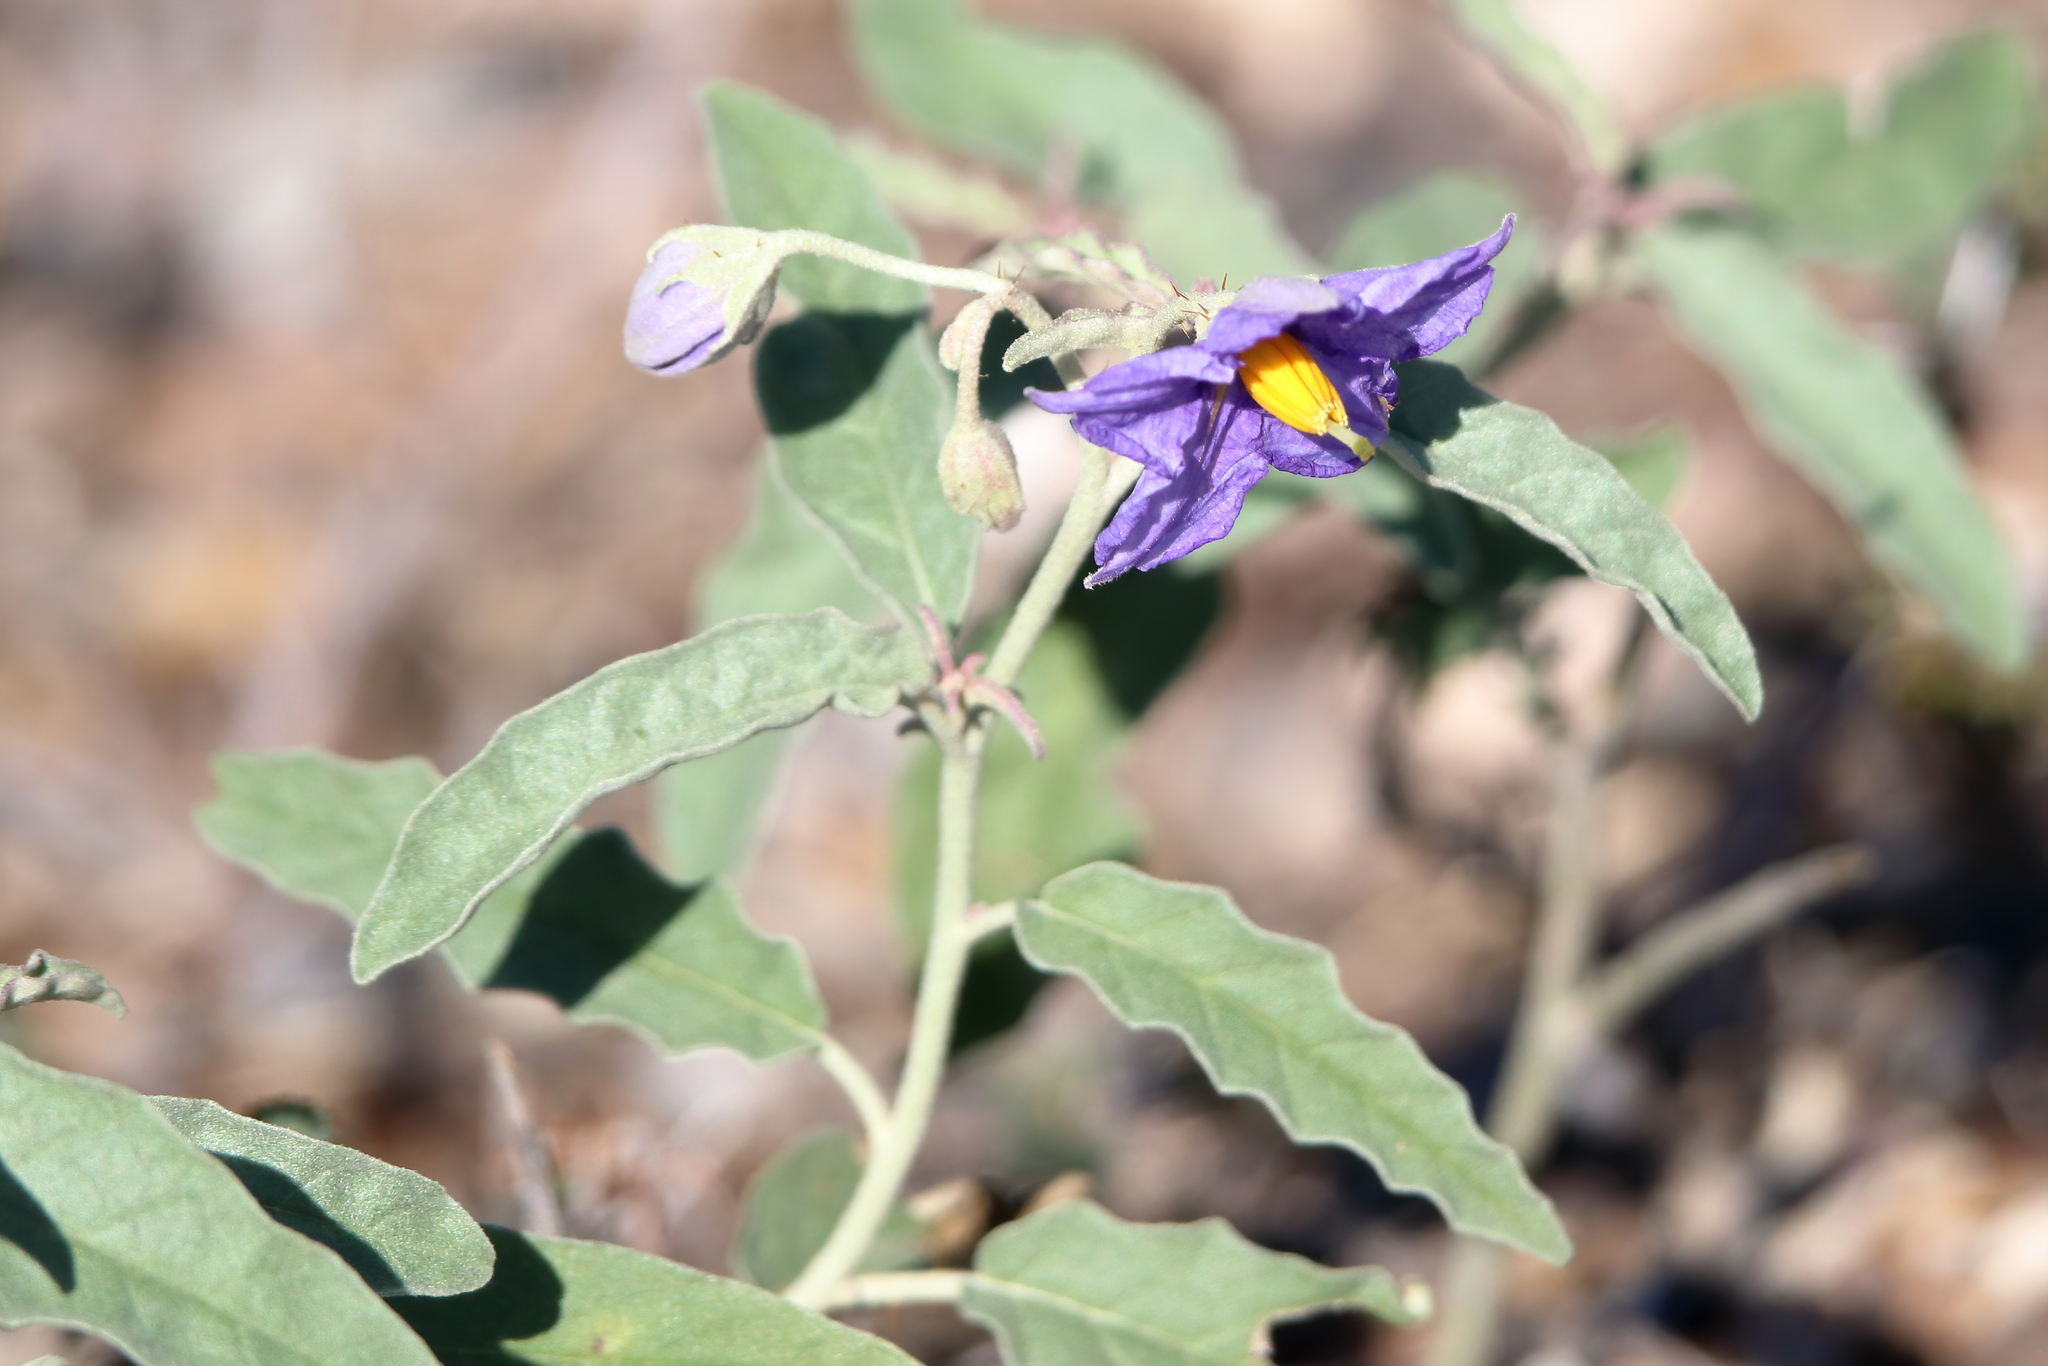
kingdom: Plantae
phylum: Tracheophyta
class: Magnoliopsida
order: Solanales
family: Solanaceae
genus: Solanum
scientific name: Solanum elaeagnifolium
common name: Silverleaf nightshade
